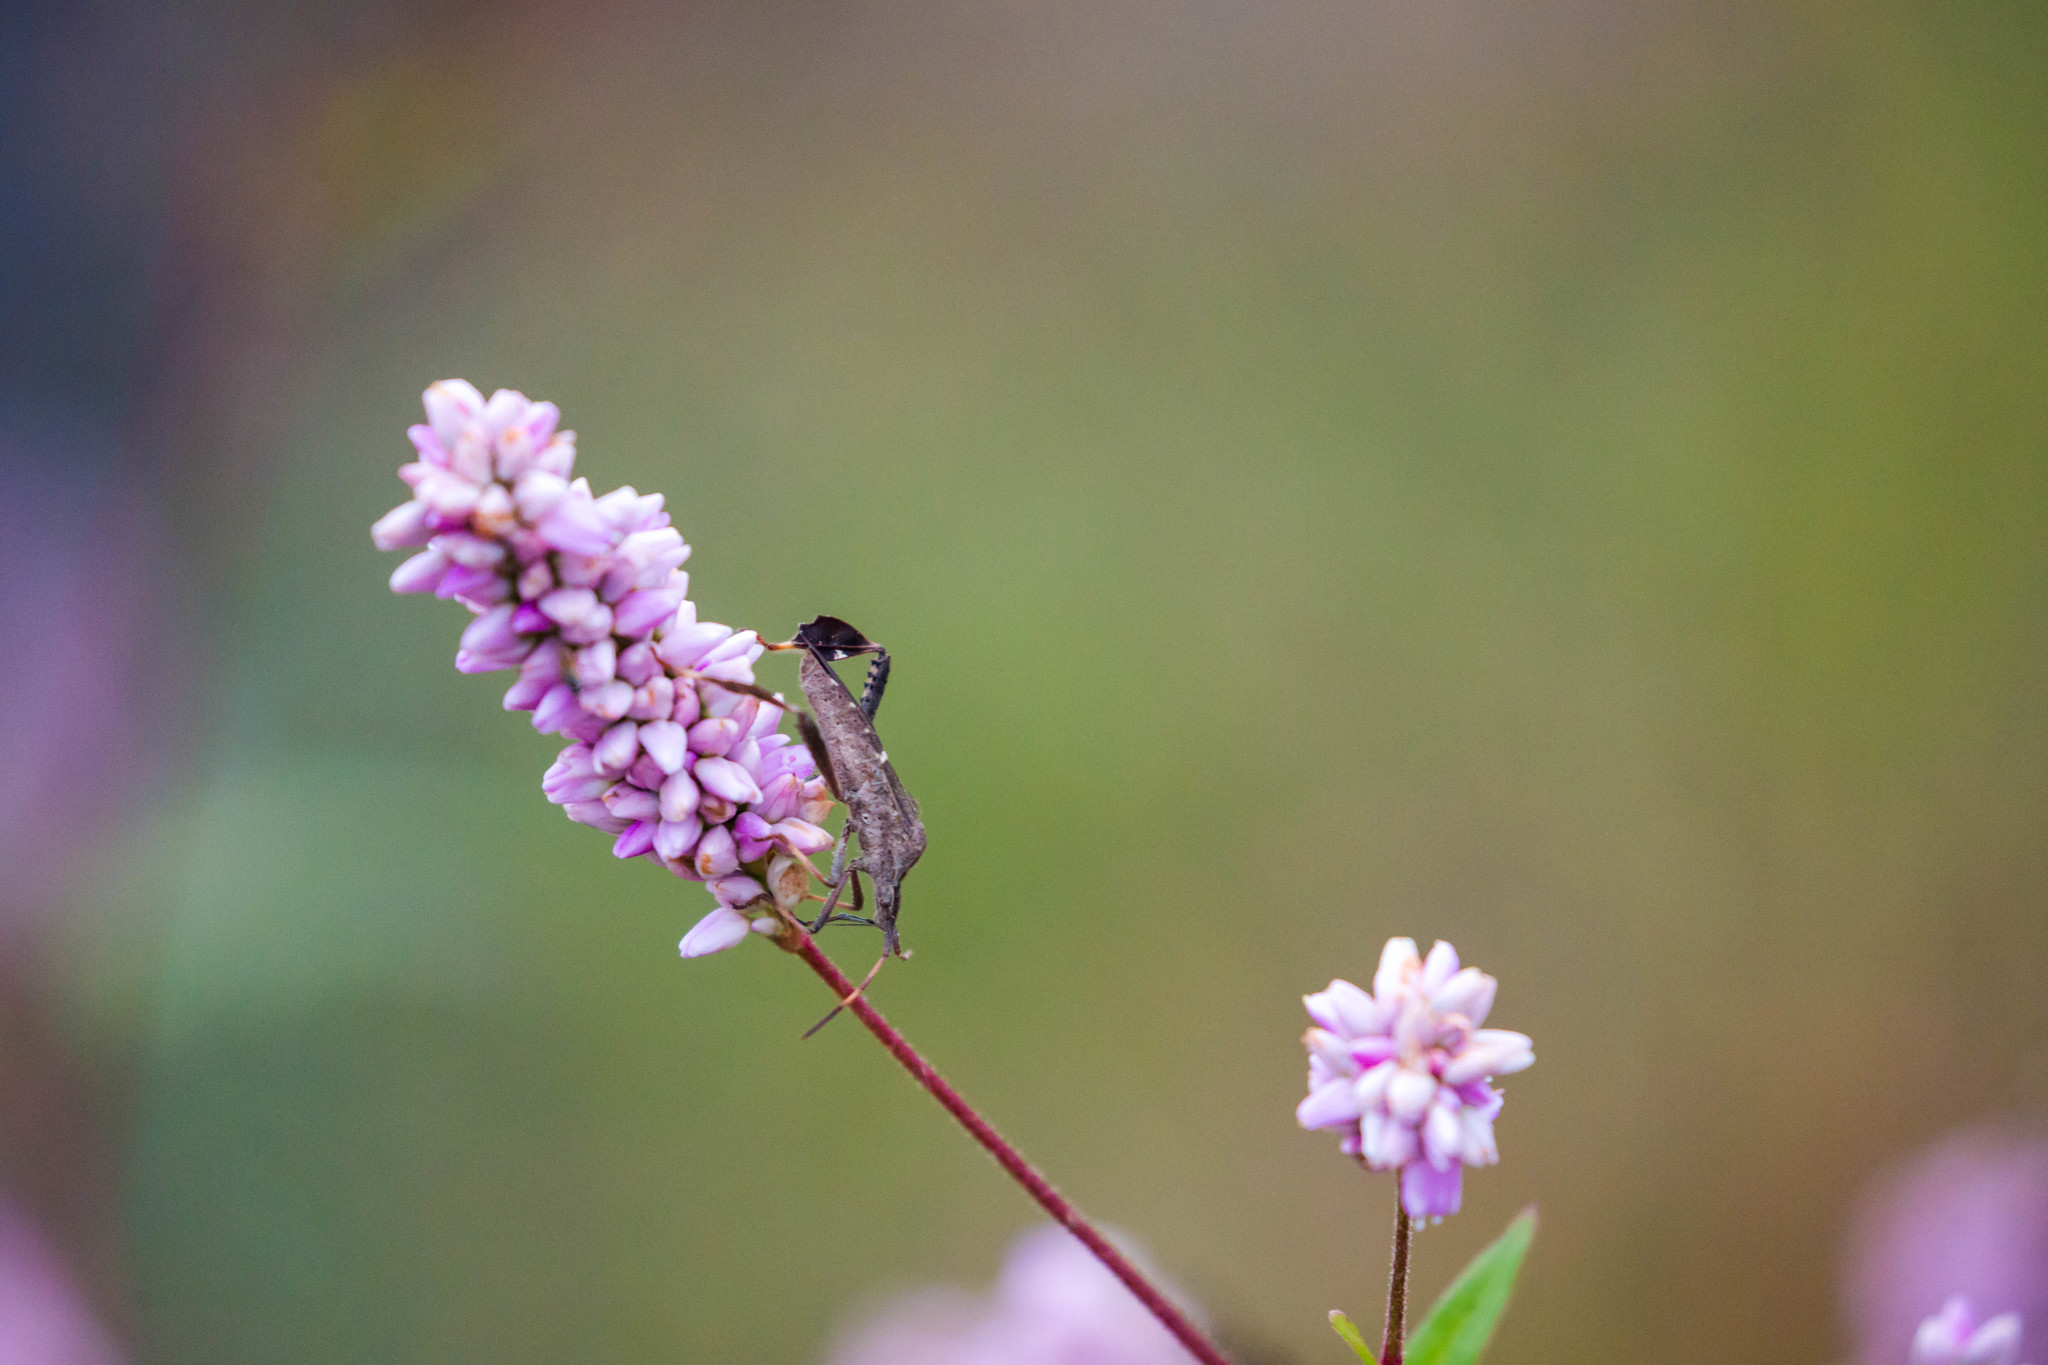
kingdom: Animalia
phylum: Arthropoda
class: Insecta
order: Hemiptera
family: Coreidae
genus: Leptoglossus
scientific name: Leptoglossus phyllopus
